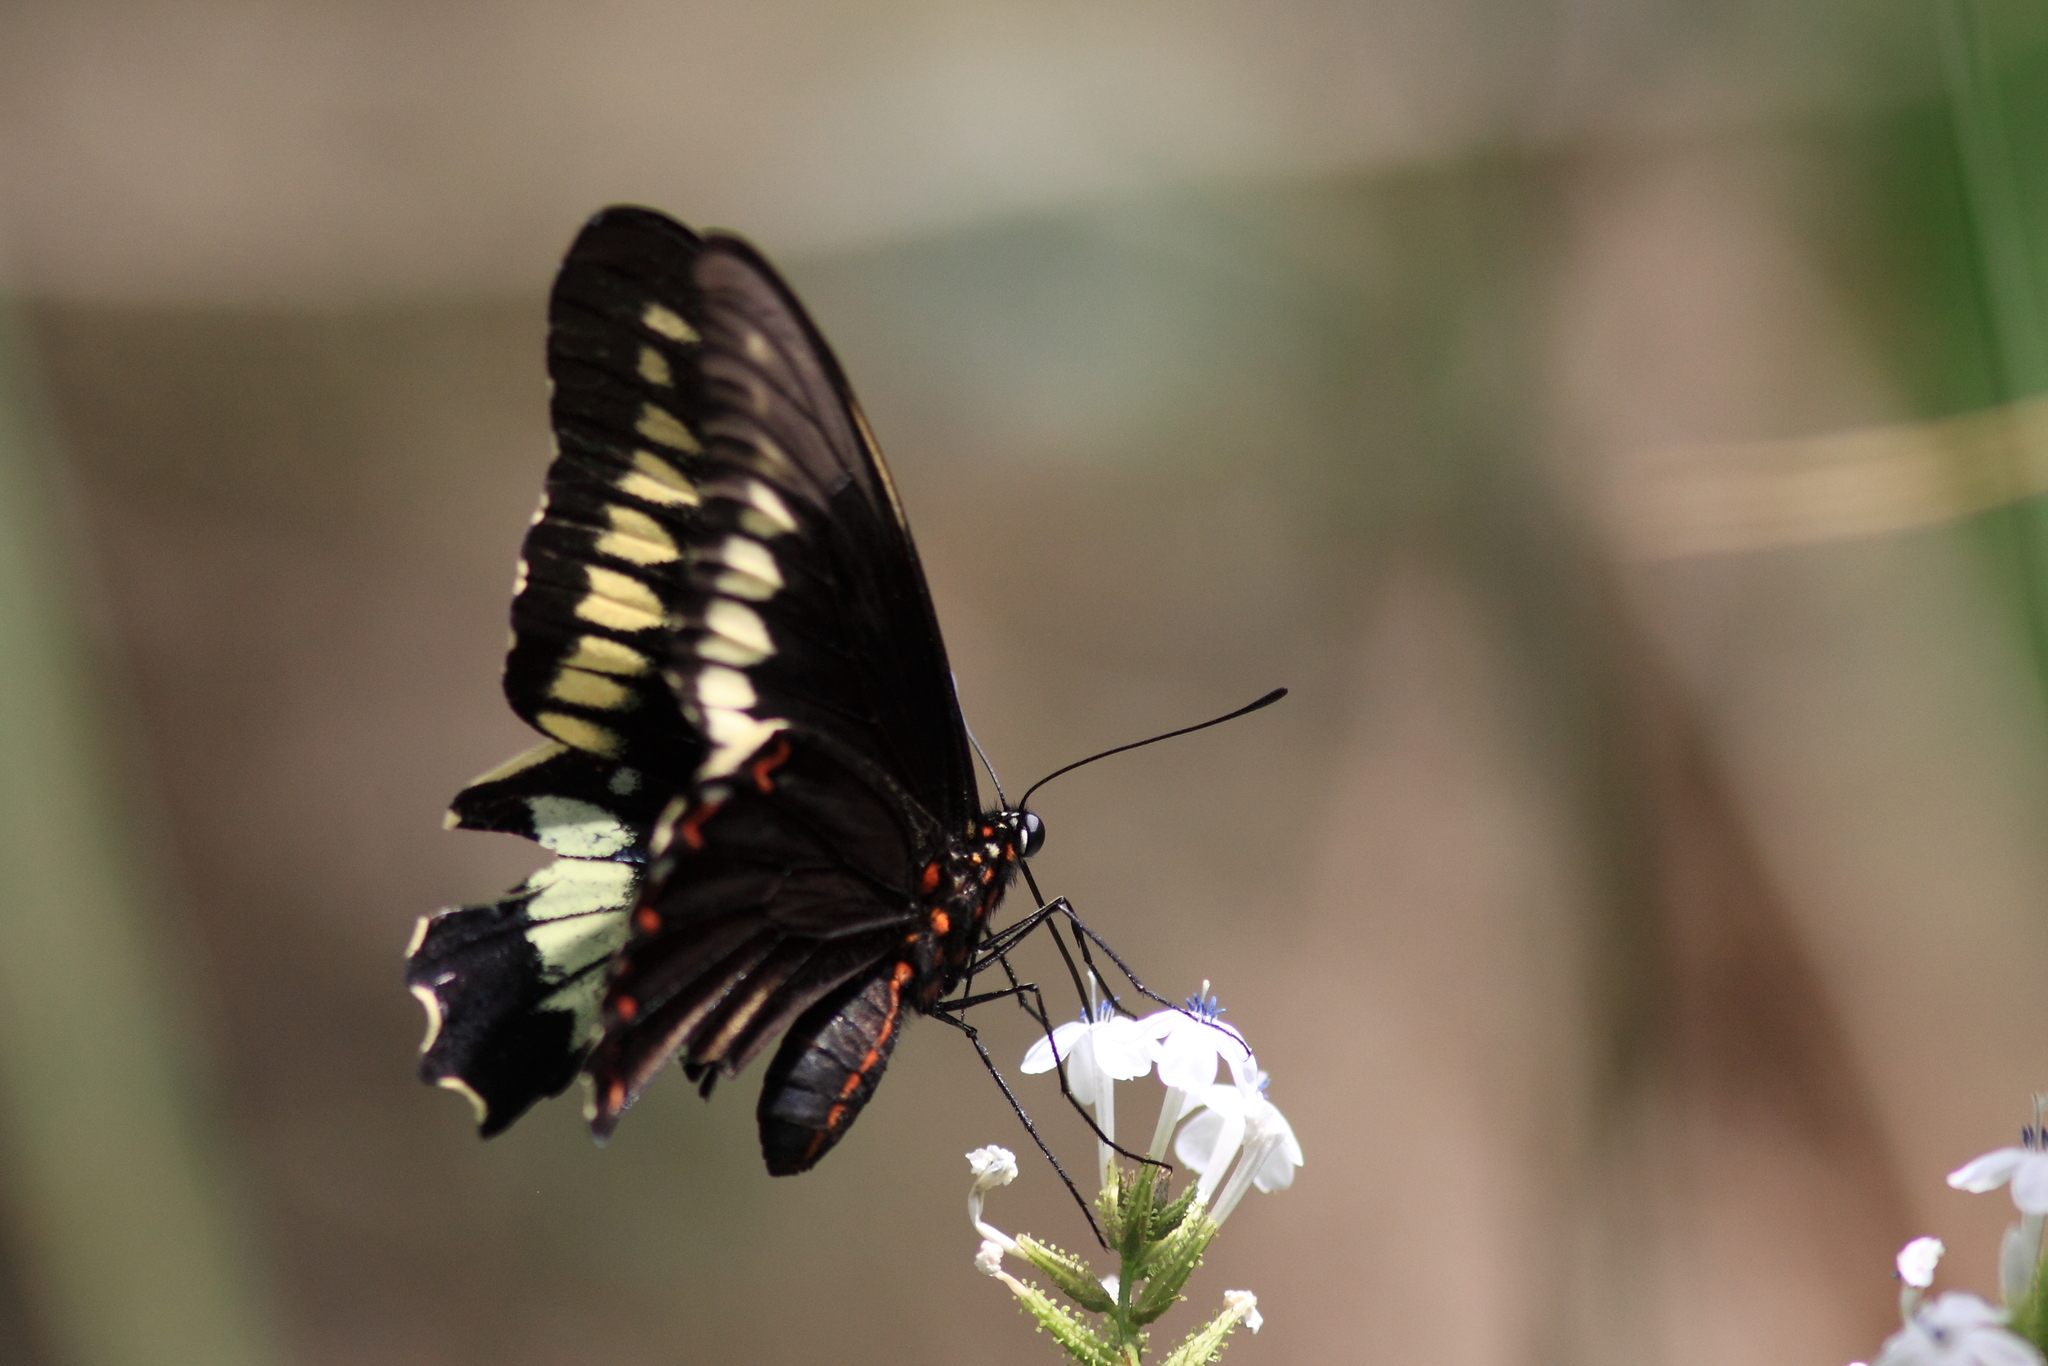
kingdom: Animalia
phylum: Arthropoda
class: Insecta
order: Lepidoptera
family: Papilionidae
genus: Battus
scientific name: Battus polydamas
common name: Polydamas swallowtail
